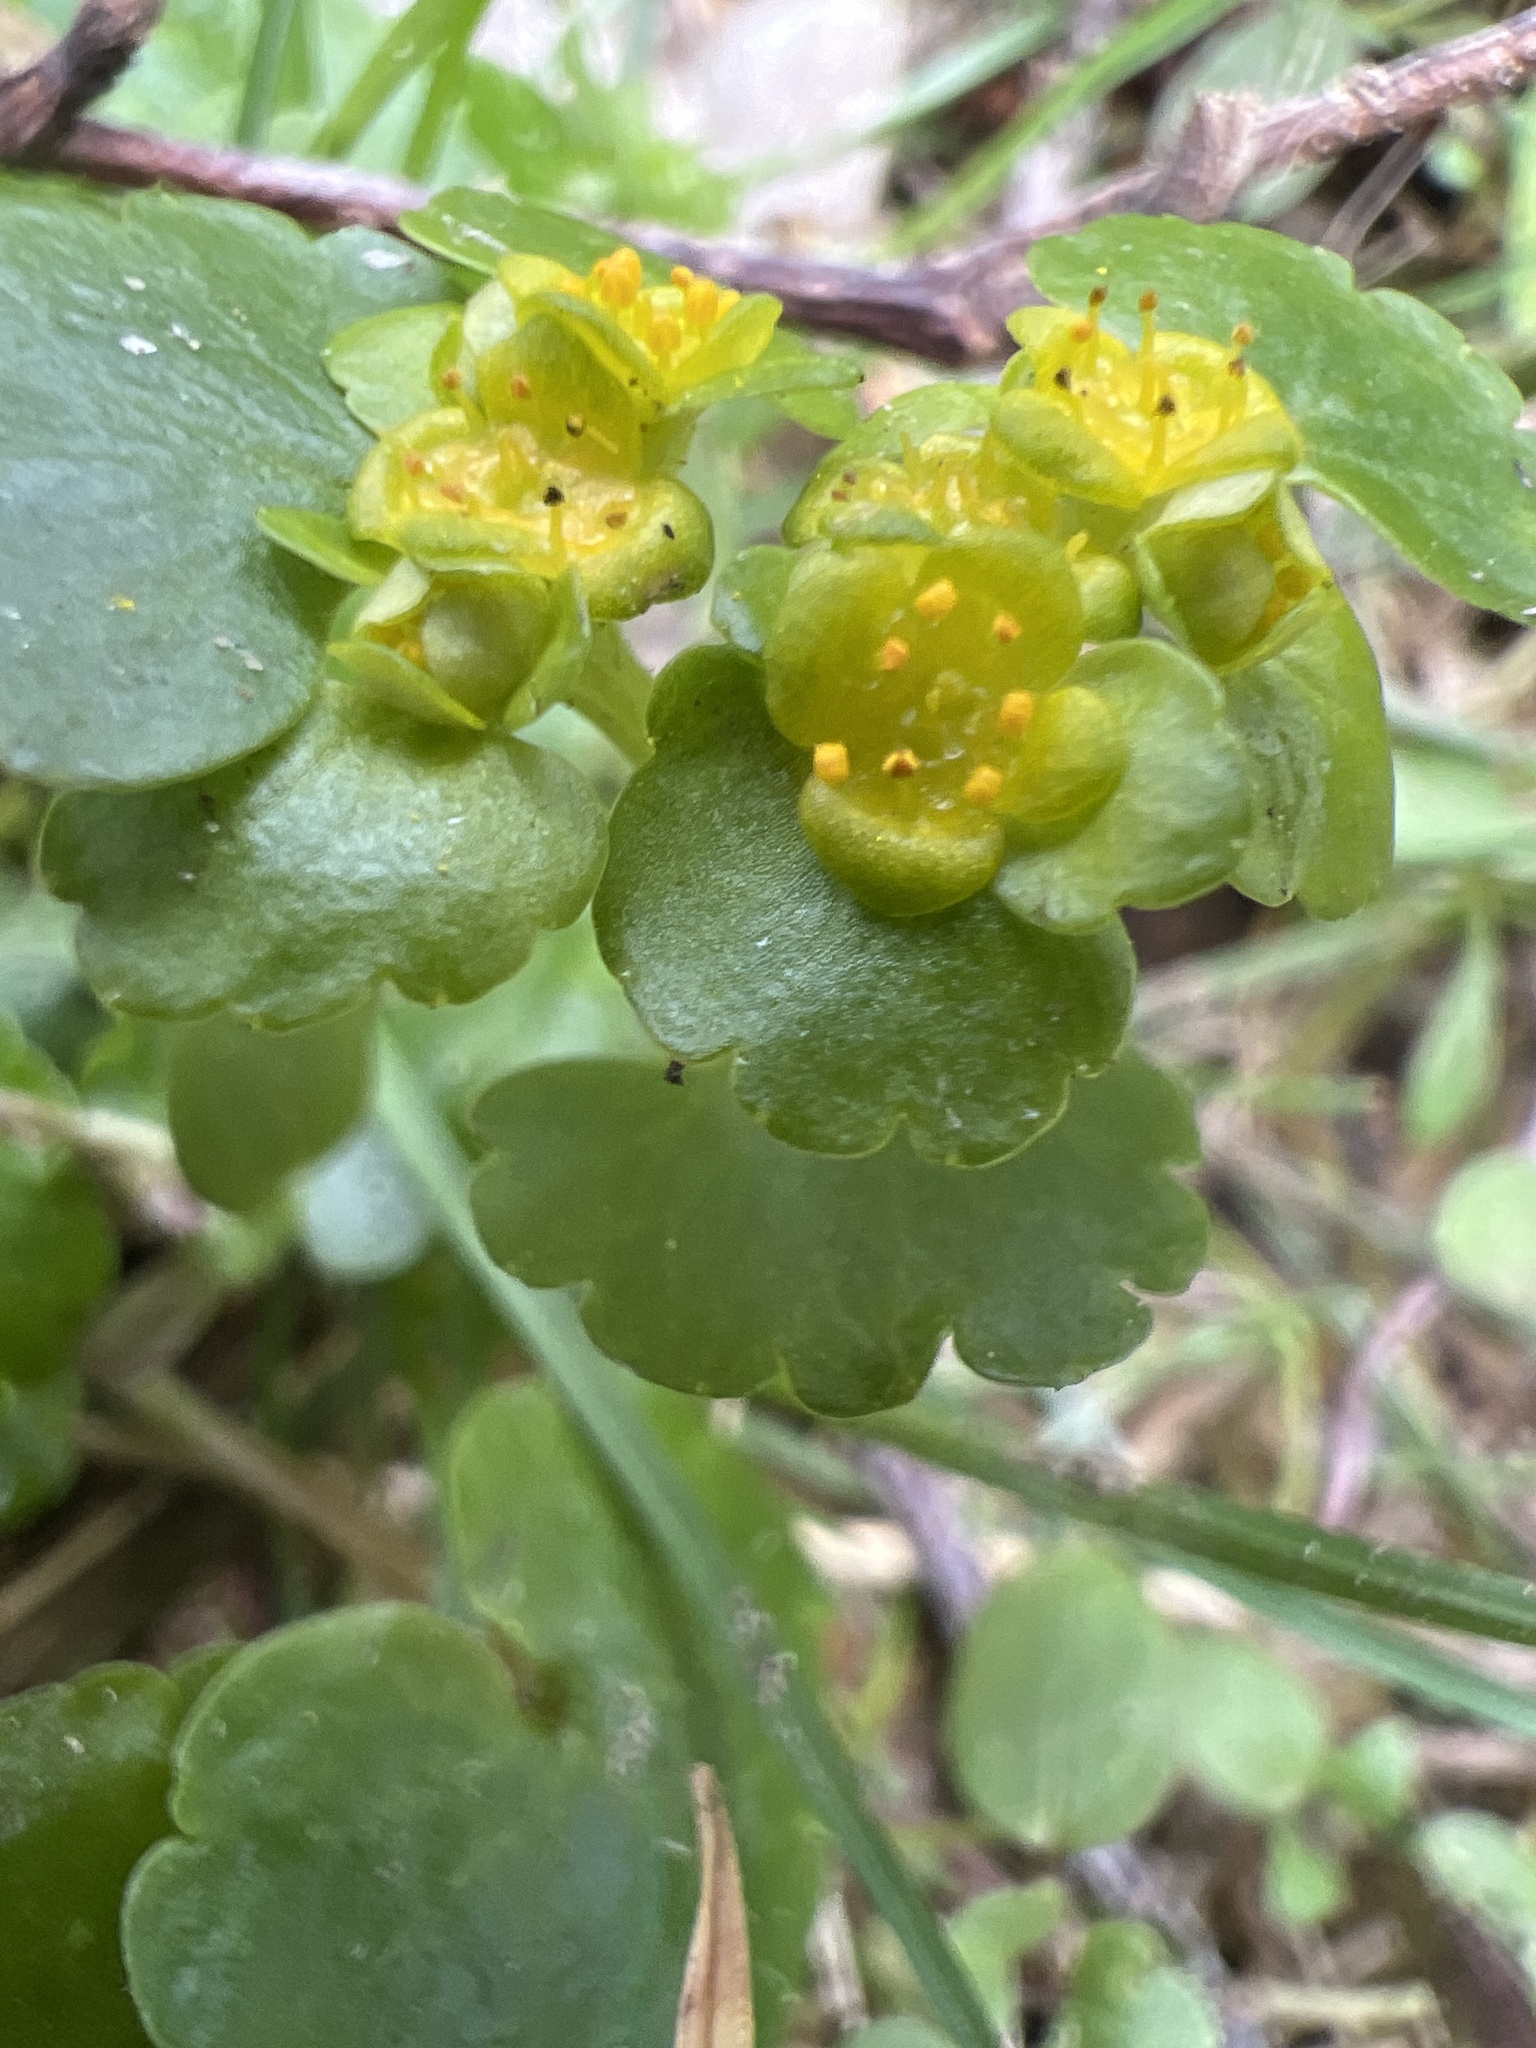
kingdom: Plantae
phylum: Tracheophyta
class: Magnoliopsida
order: Saxifragales
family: Saxifragaceae
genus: Chrysosplenium
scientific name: Chrysosplenium alternifolium
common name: Alternate-leaved golden-saxifrage
